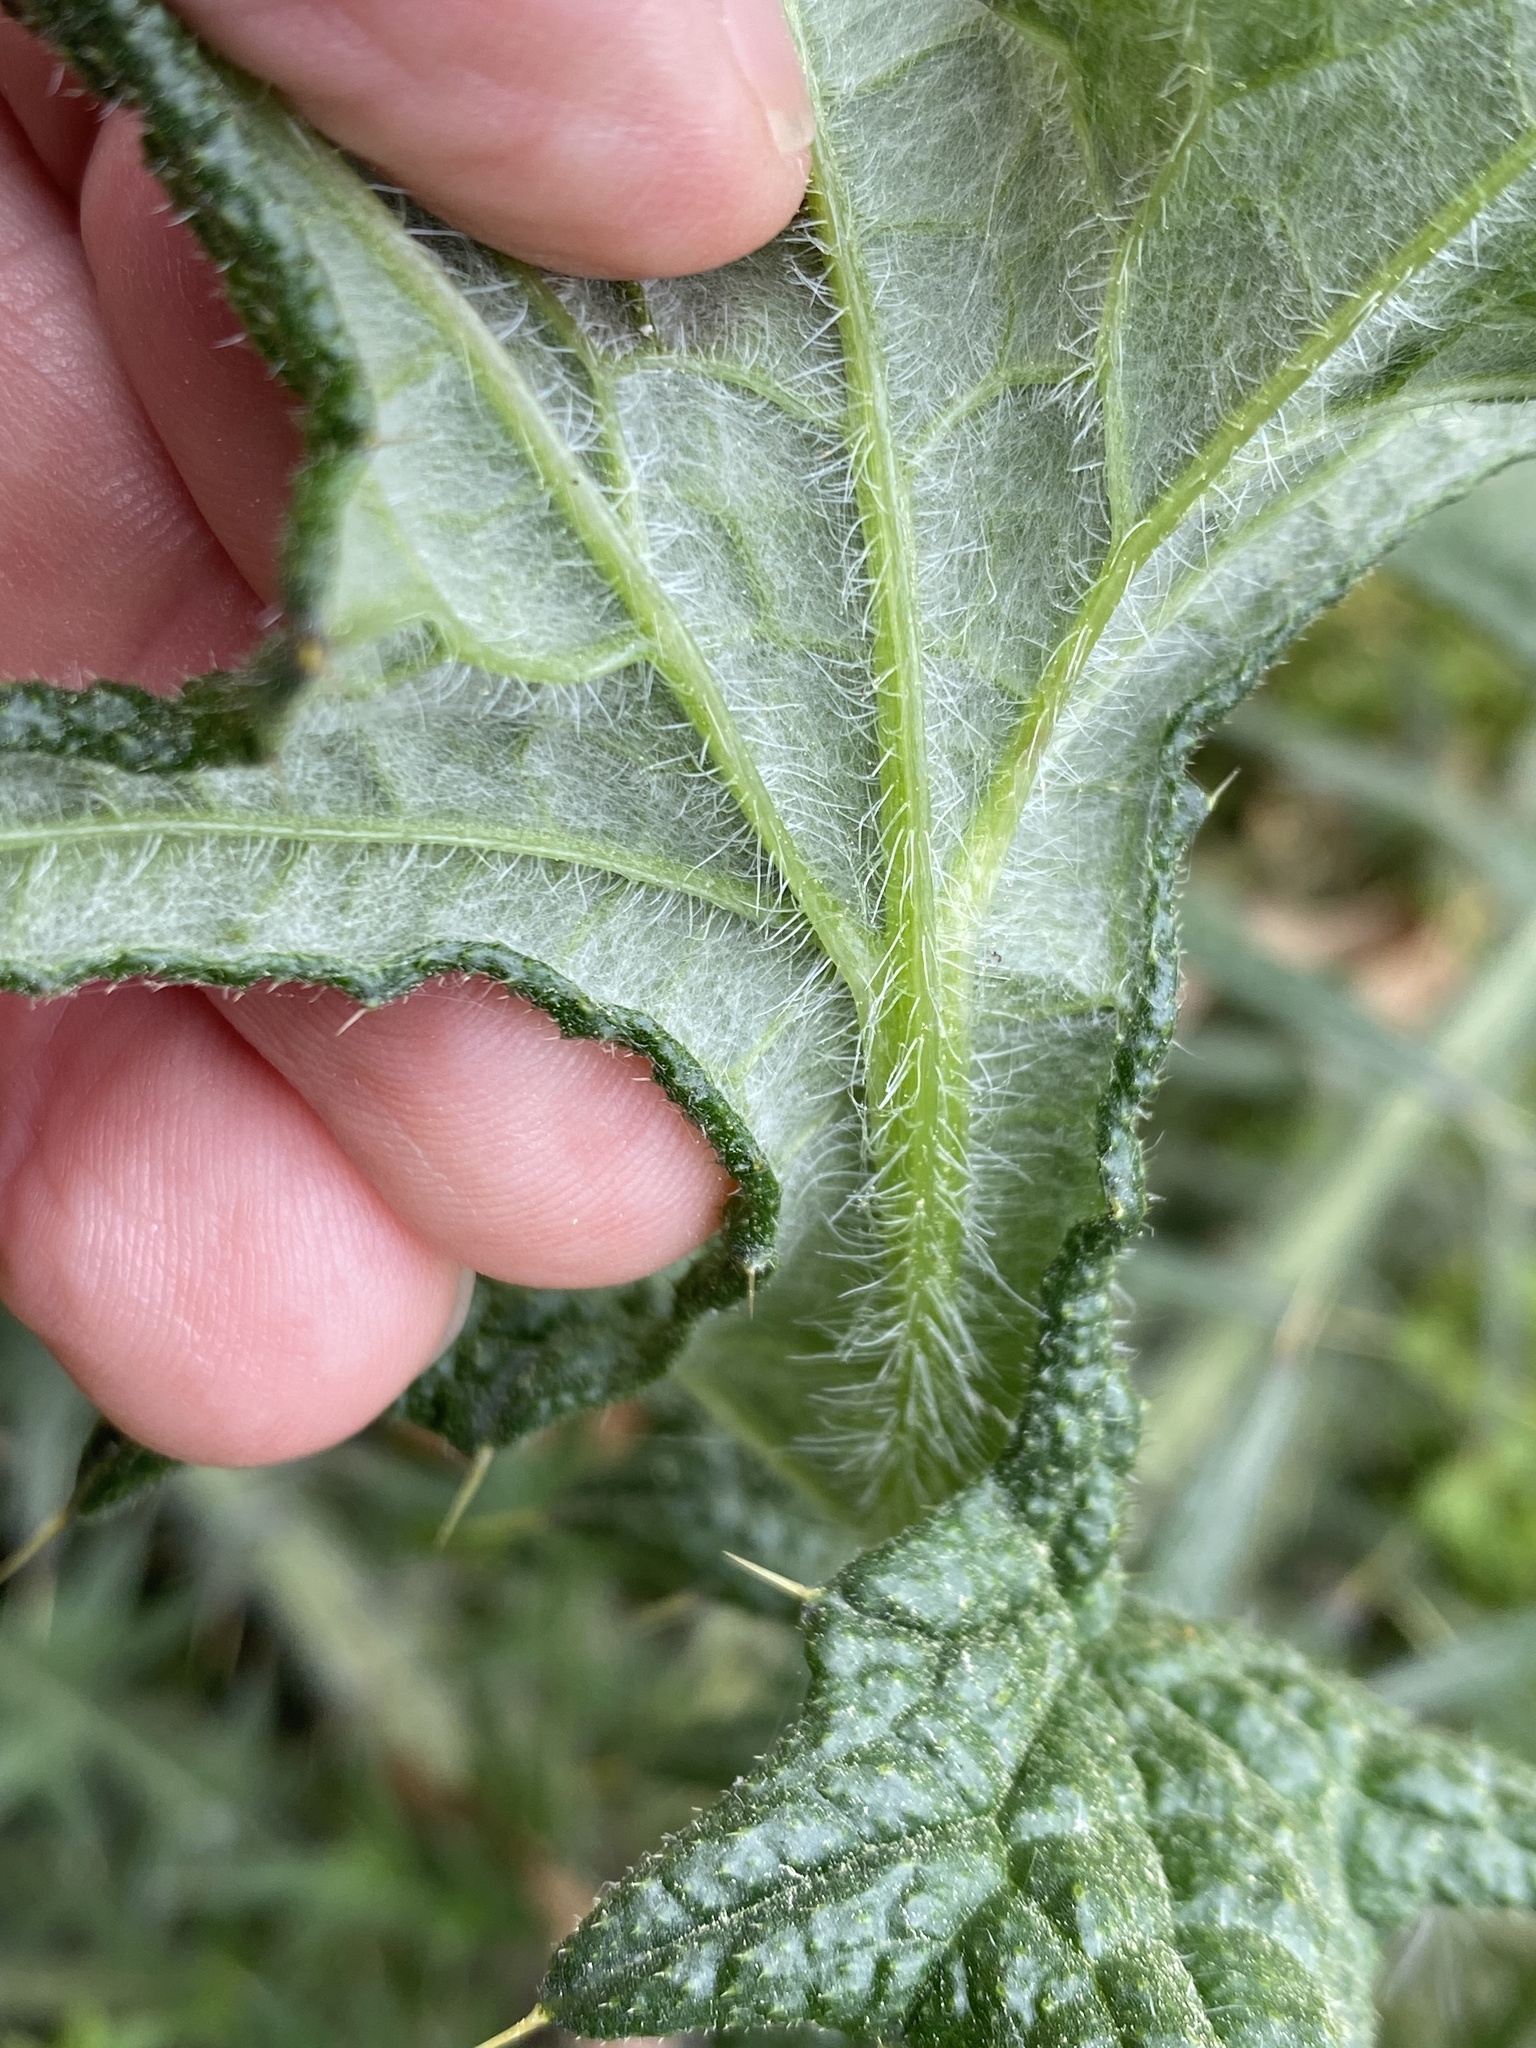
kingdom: Plantae
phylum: Tracheophyta
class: Magnoliopsida
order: Asterales
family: Asteraceae
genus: Cirsium
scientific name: Cirsium vulgare
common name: Bull thistle
